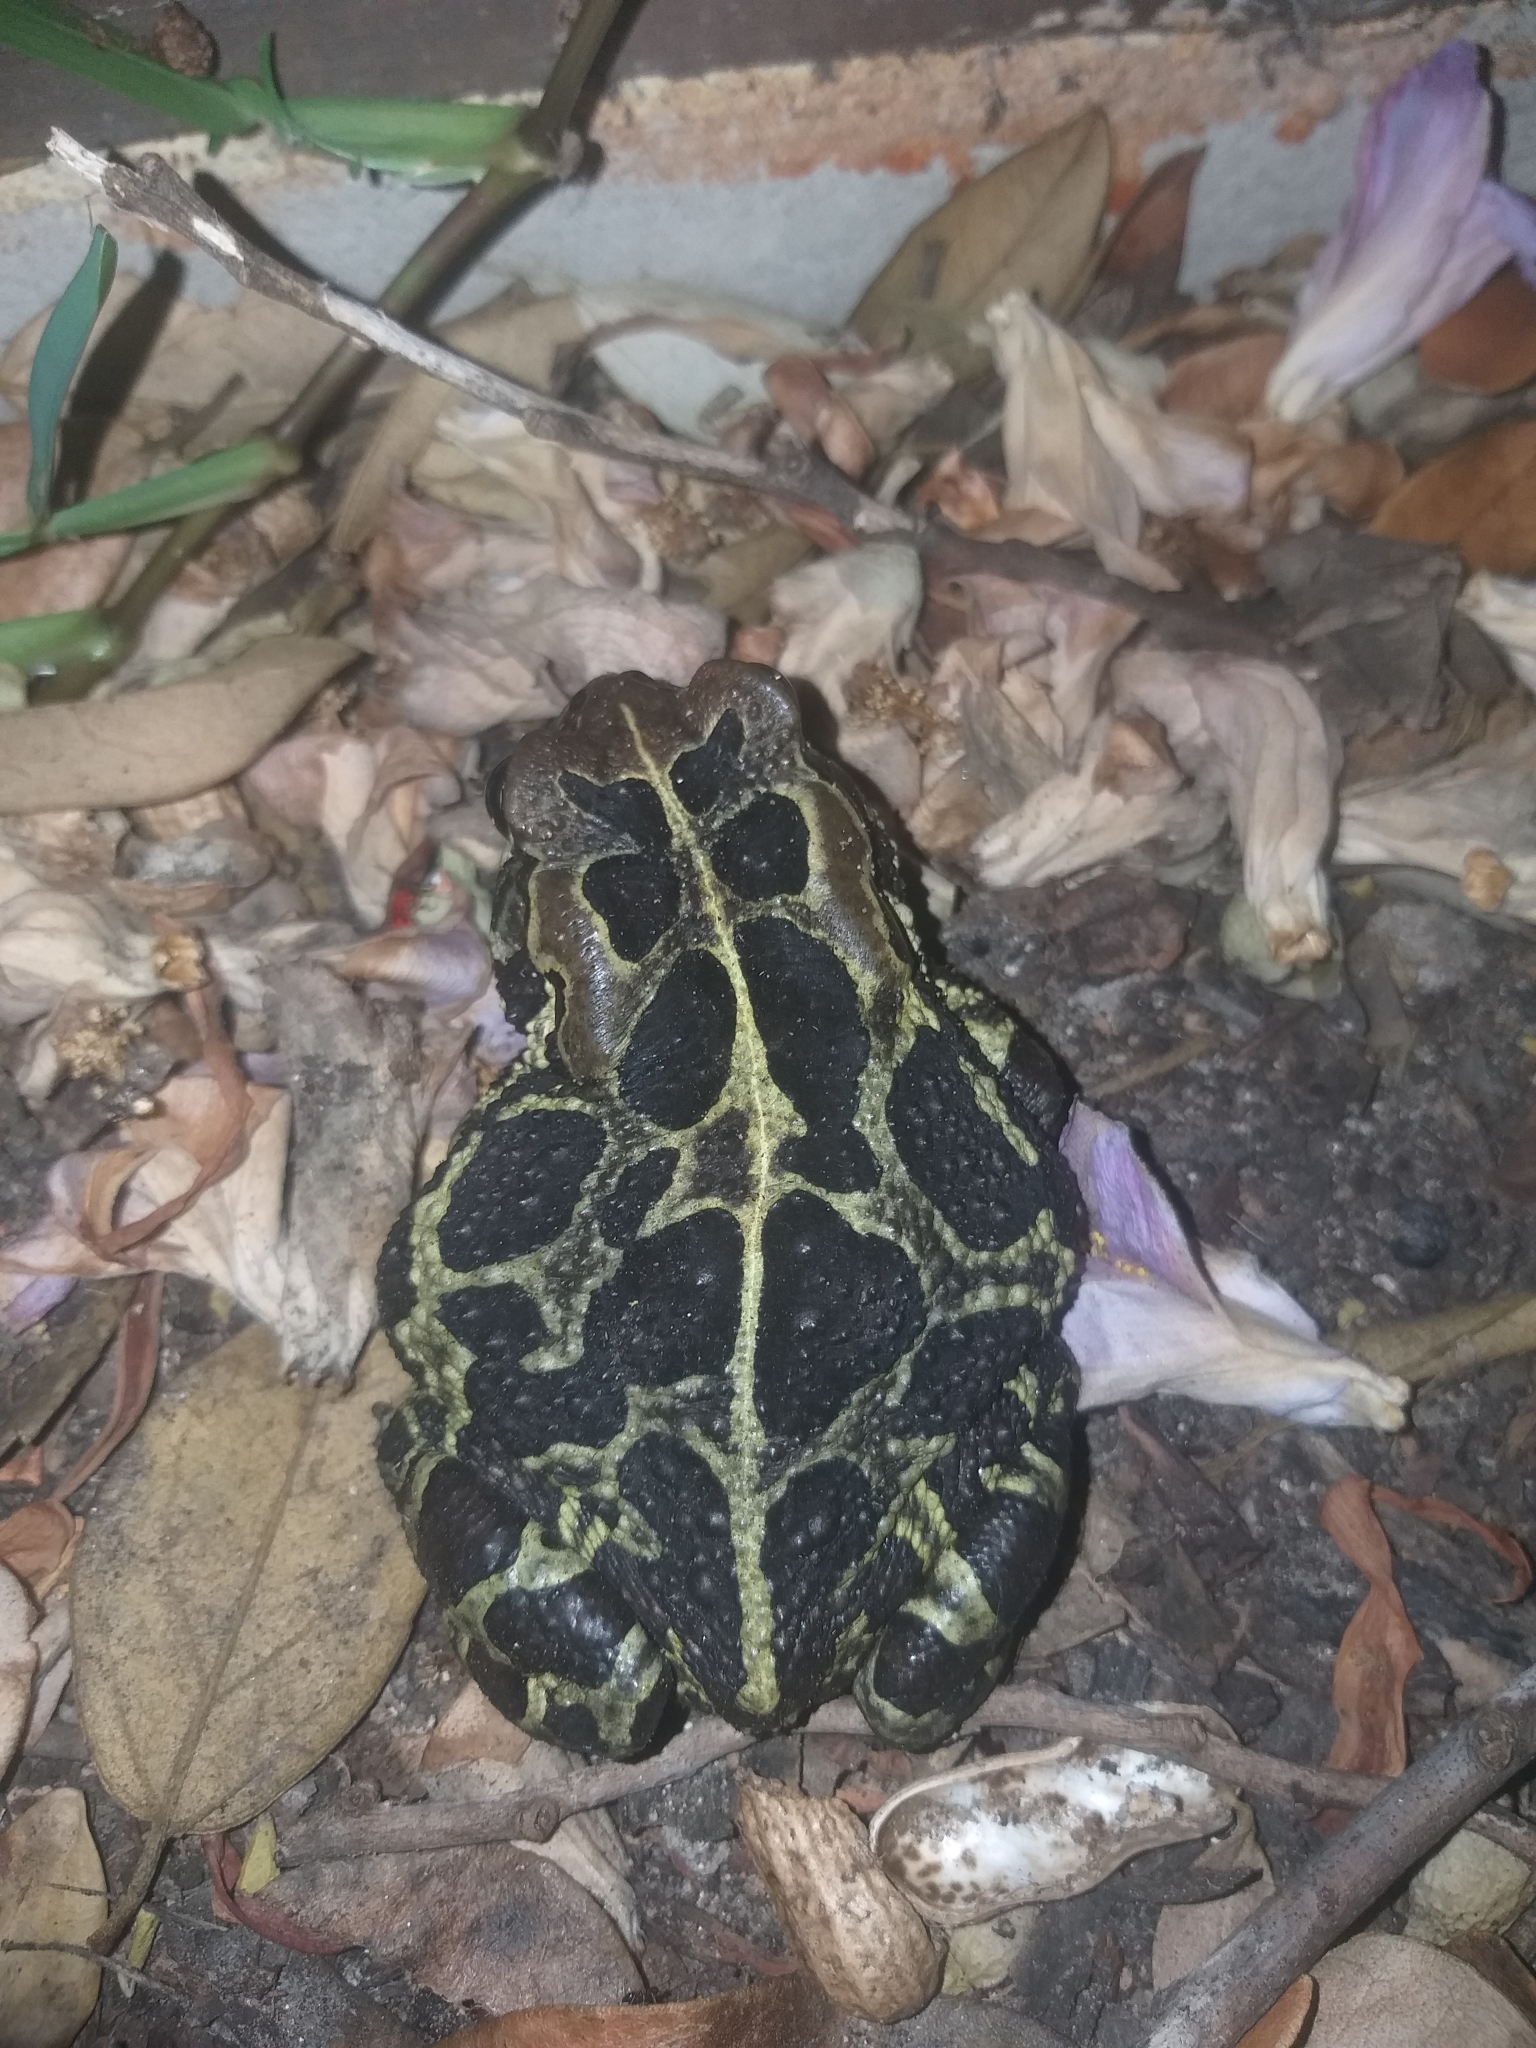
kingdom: Animalia
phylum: Chordata
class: Amphibia
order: Anura
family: Bufonidae
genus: Sclerophrys
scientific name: Sclerophrys pantherina
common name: Panther toad
